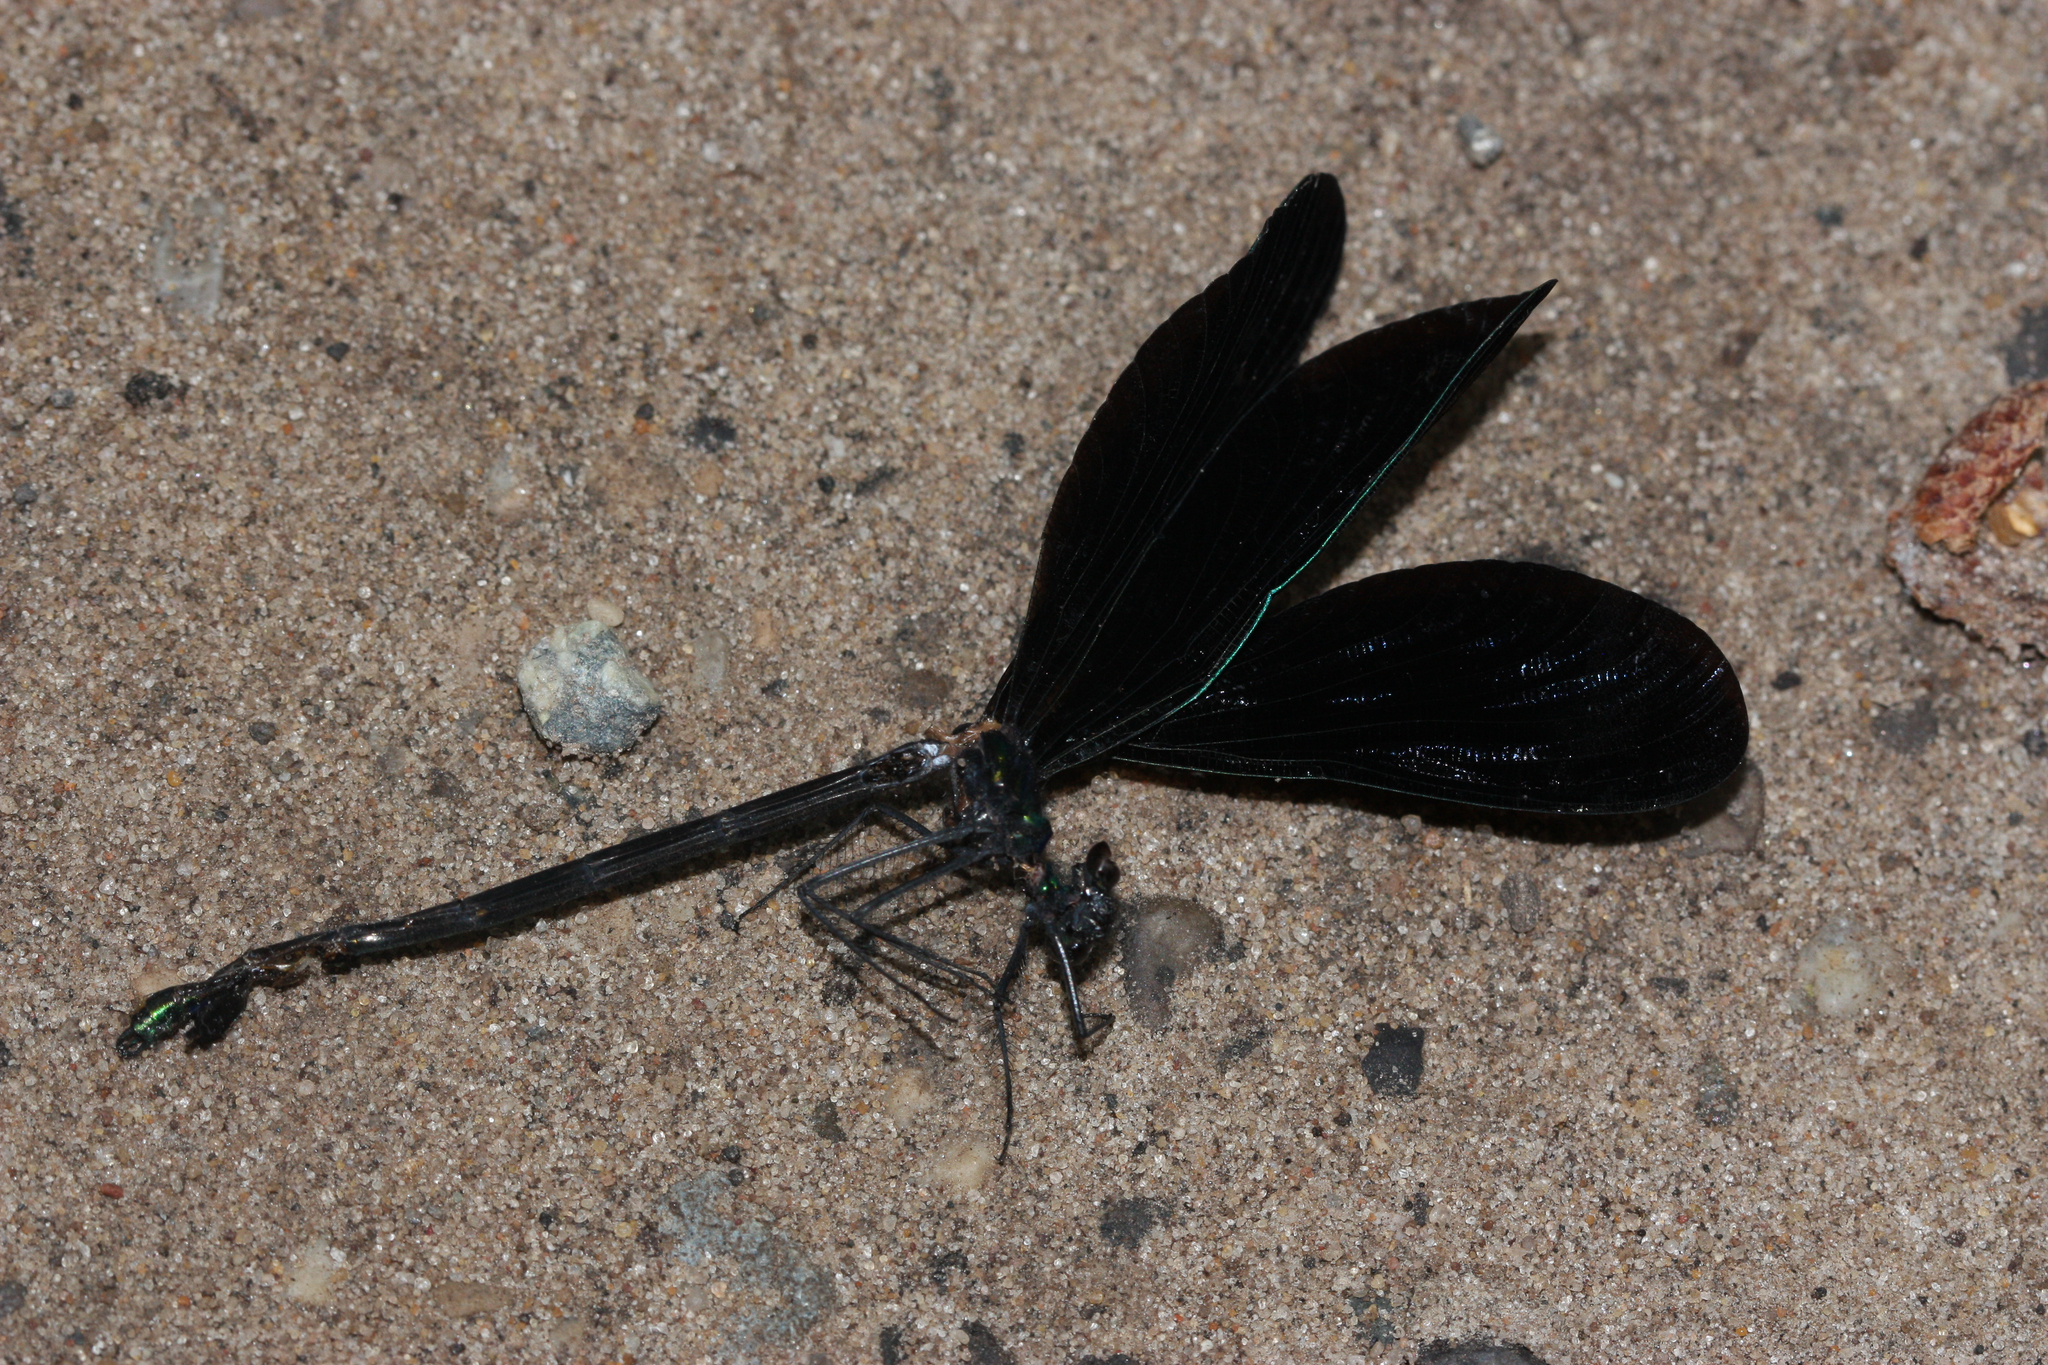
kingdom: Animalia
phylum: Arthropoda
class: Insecta
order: Odonata
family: Calopterygidae
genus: Calopteryx
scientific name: Calopteryx maculata
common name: Ebony jewelwing
